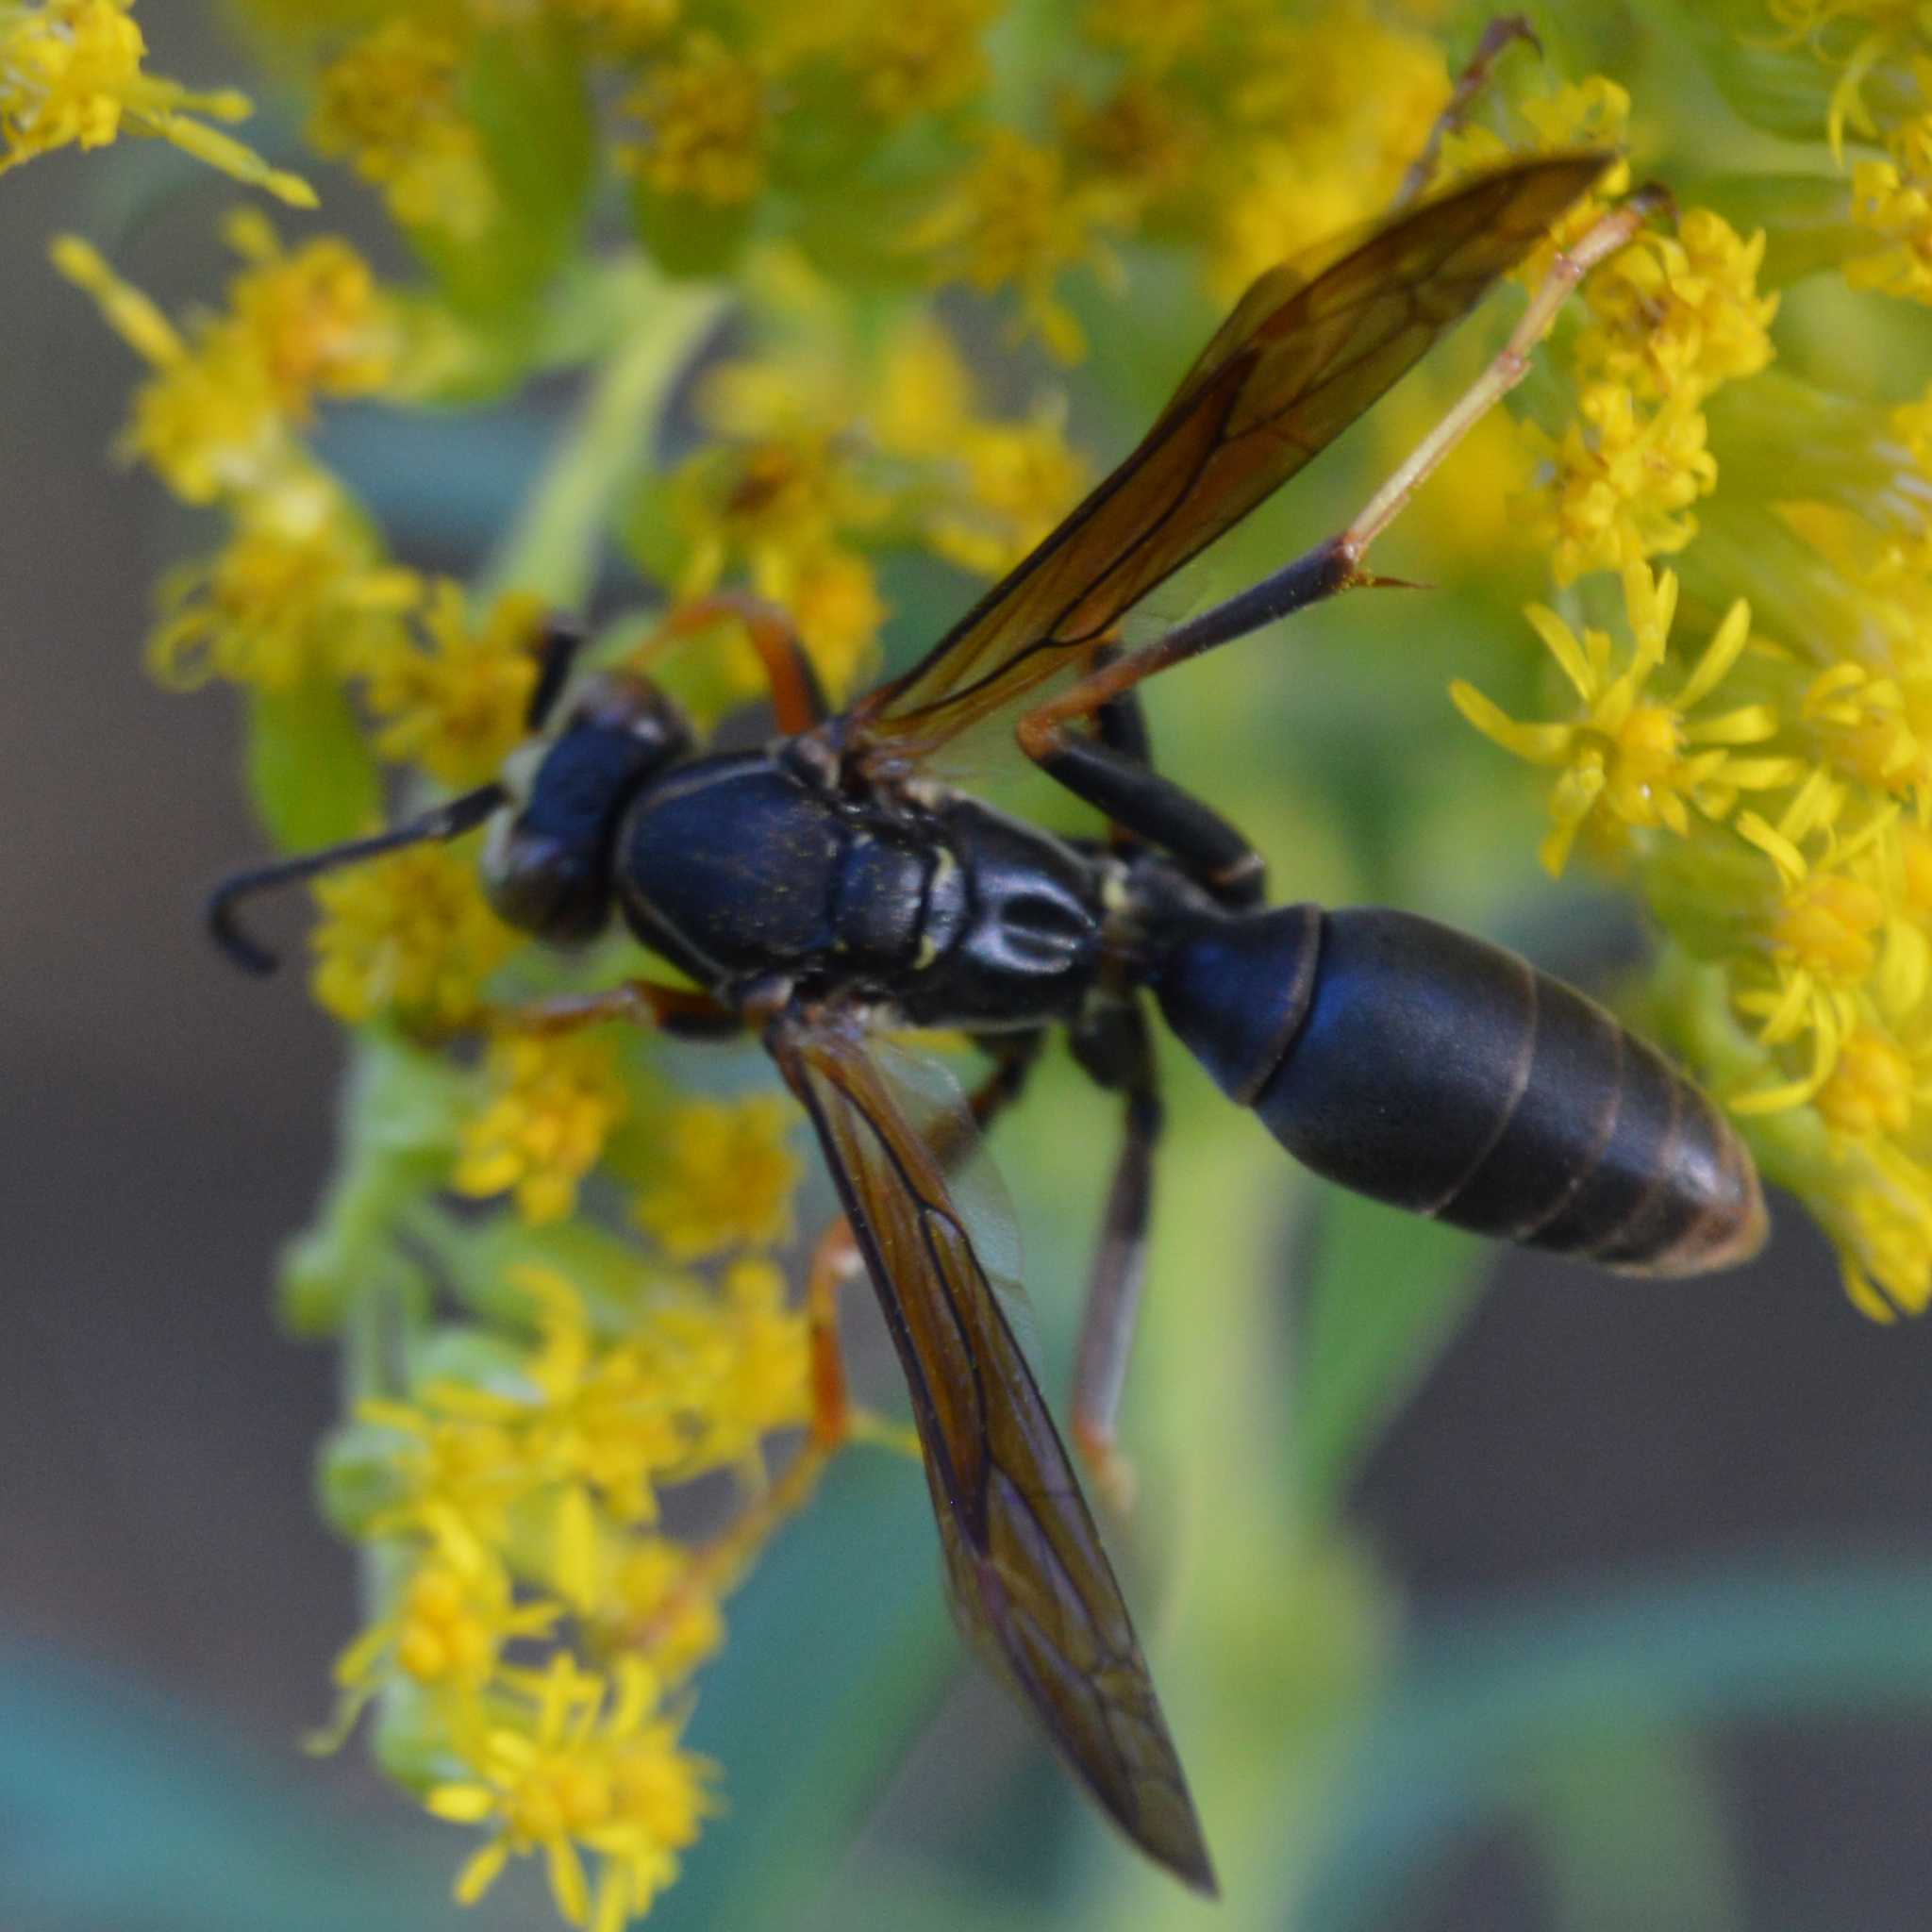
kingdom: Animalia
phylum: Arthropoda
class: Insecta
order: Hymenoptera
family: Eumenidae
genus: Polistes
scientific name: Polistes fuscatus
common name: Dark paper wasp
